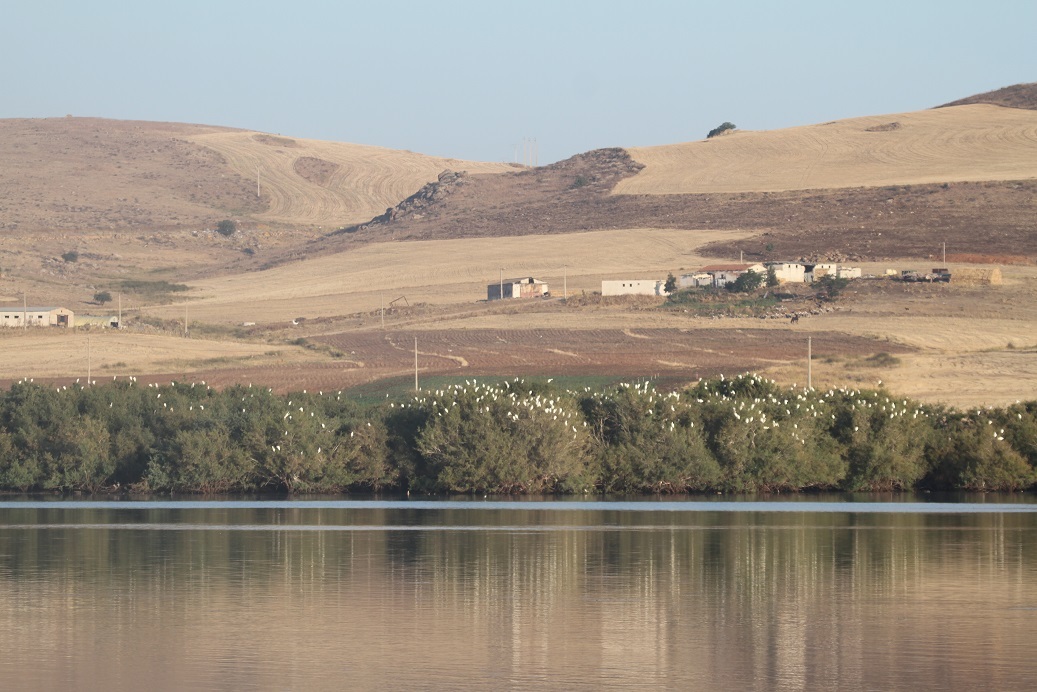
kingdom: Animalia
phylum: Chordata
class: Aves
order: Pelecaniformes
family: Ardeidae
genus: Bubulcus
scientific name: Bubulcus ibis
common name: Cattle egret
